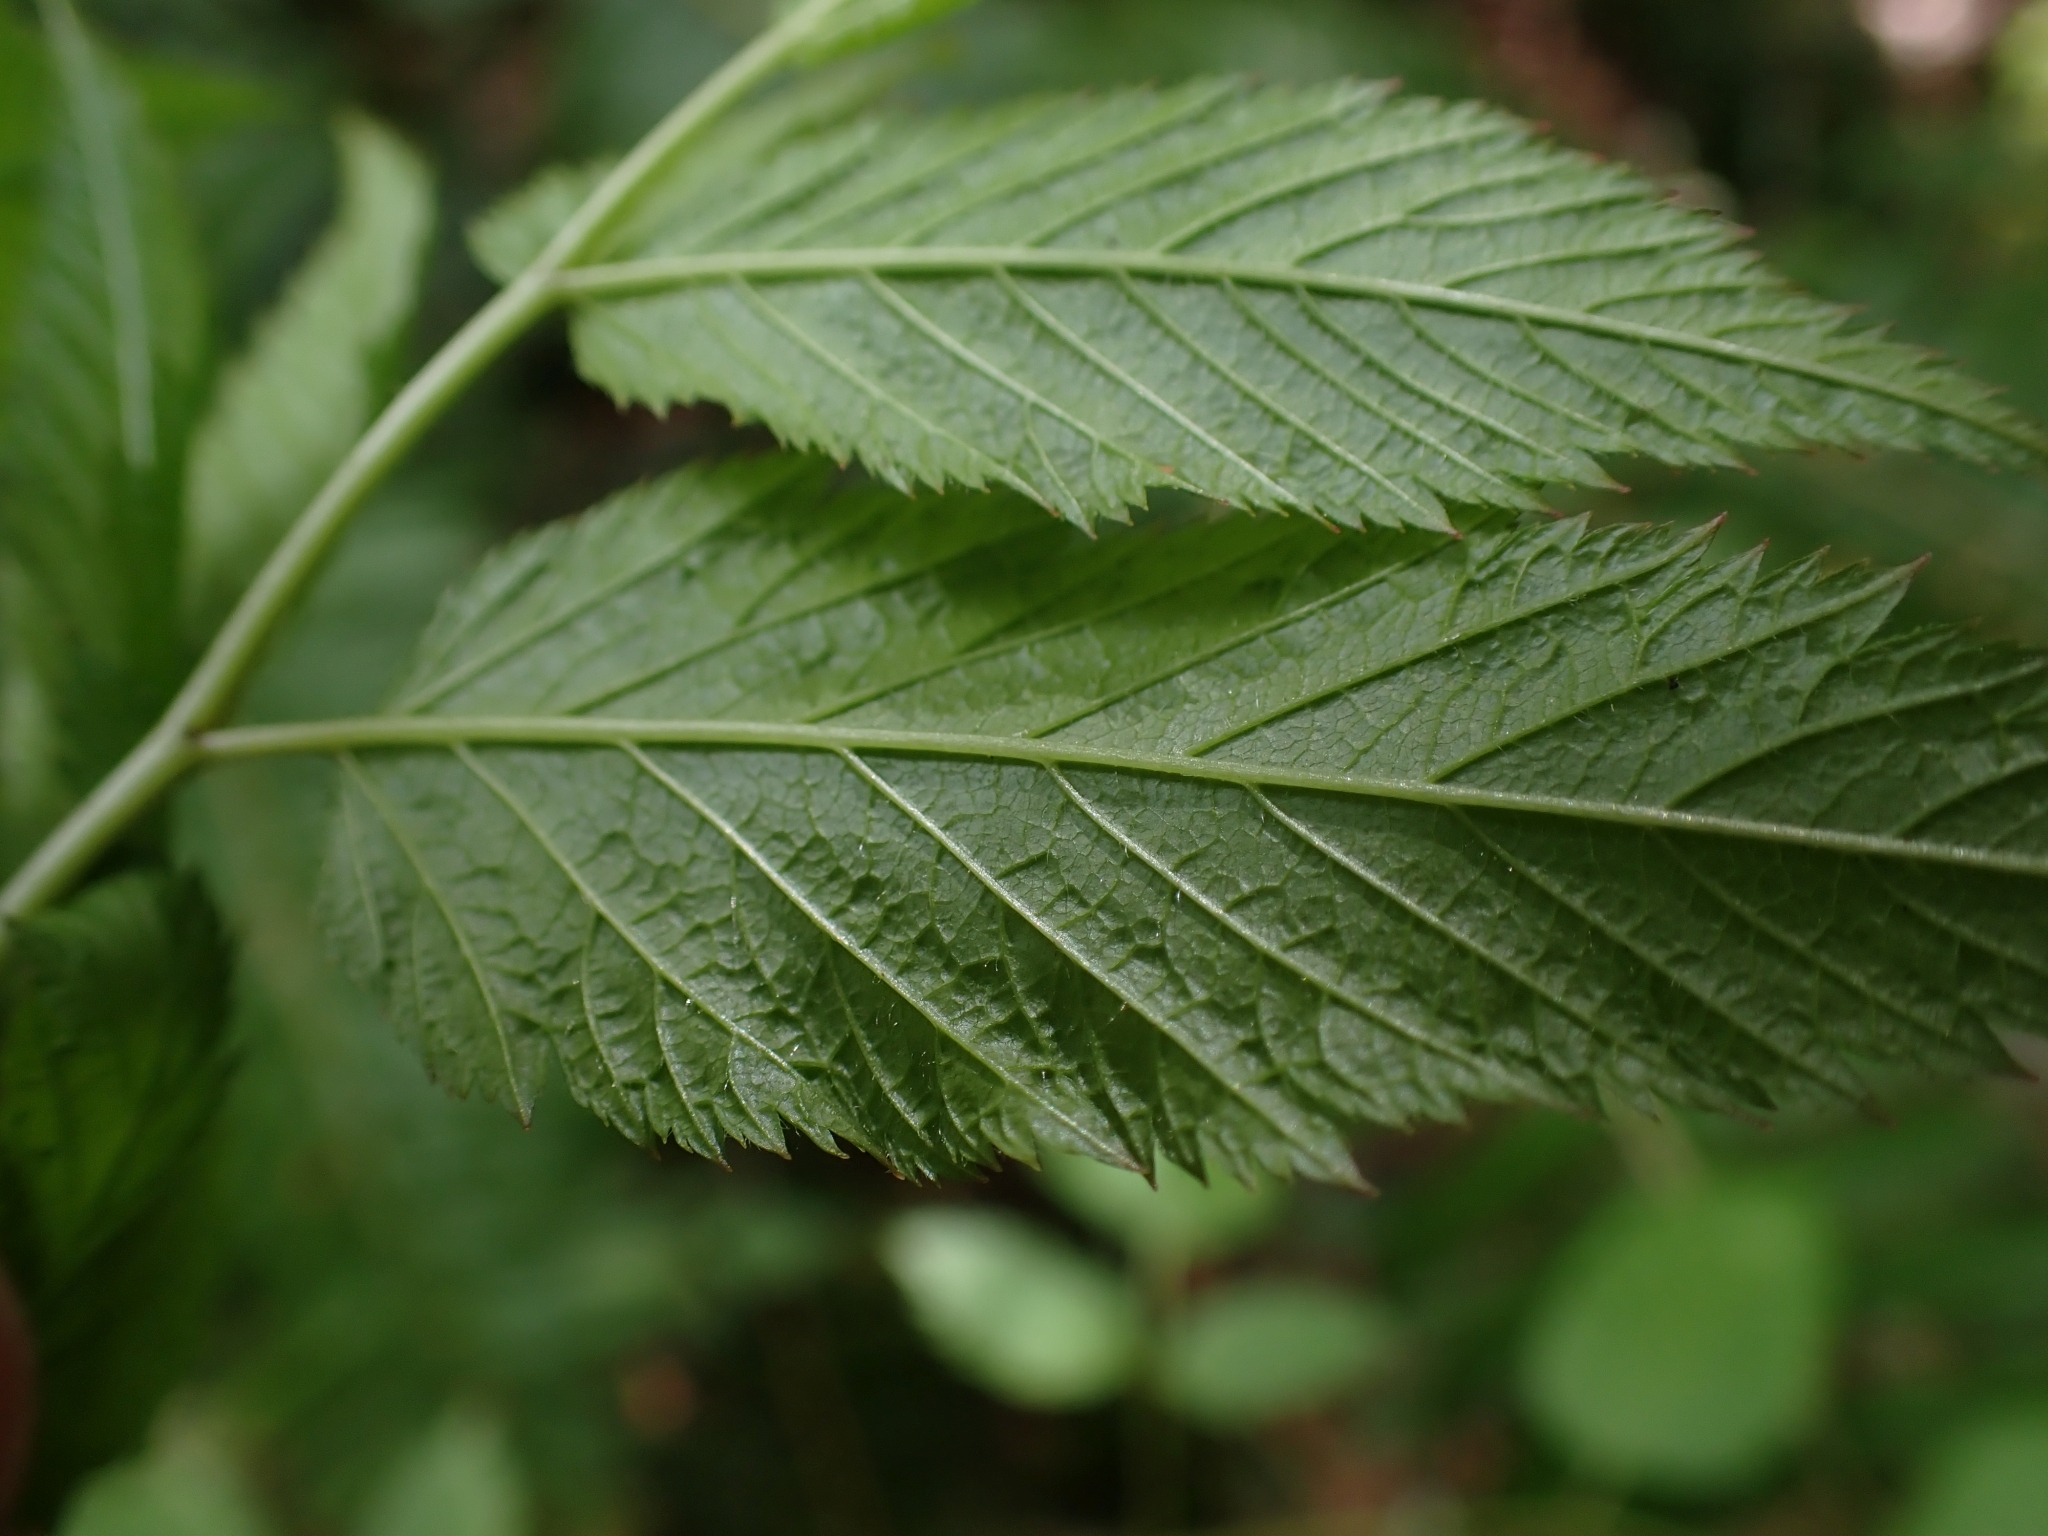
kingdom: Plantae
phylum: Tracheophyta
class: Magnoliopsida
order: Rosales
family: Rosaceae
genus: Aruncus
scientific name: Aruncus dioicus
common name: Buck's-beard
